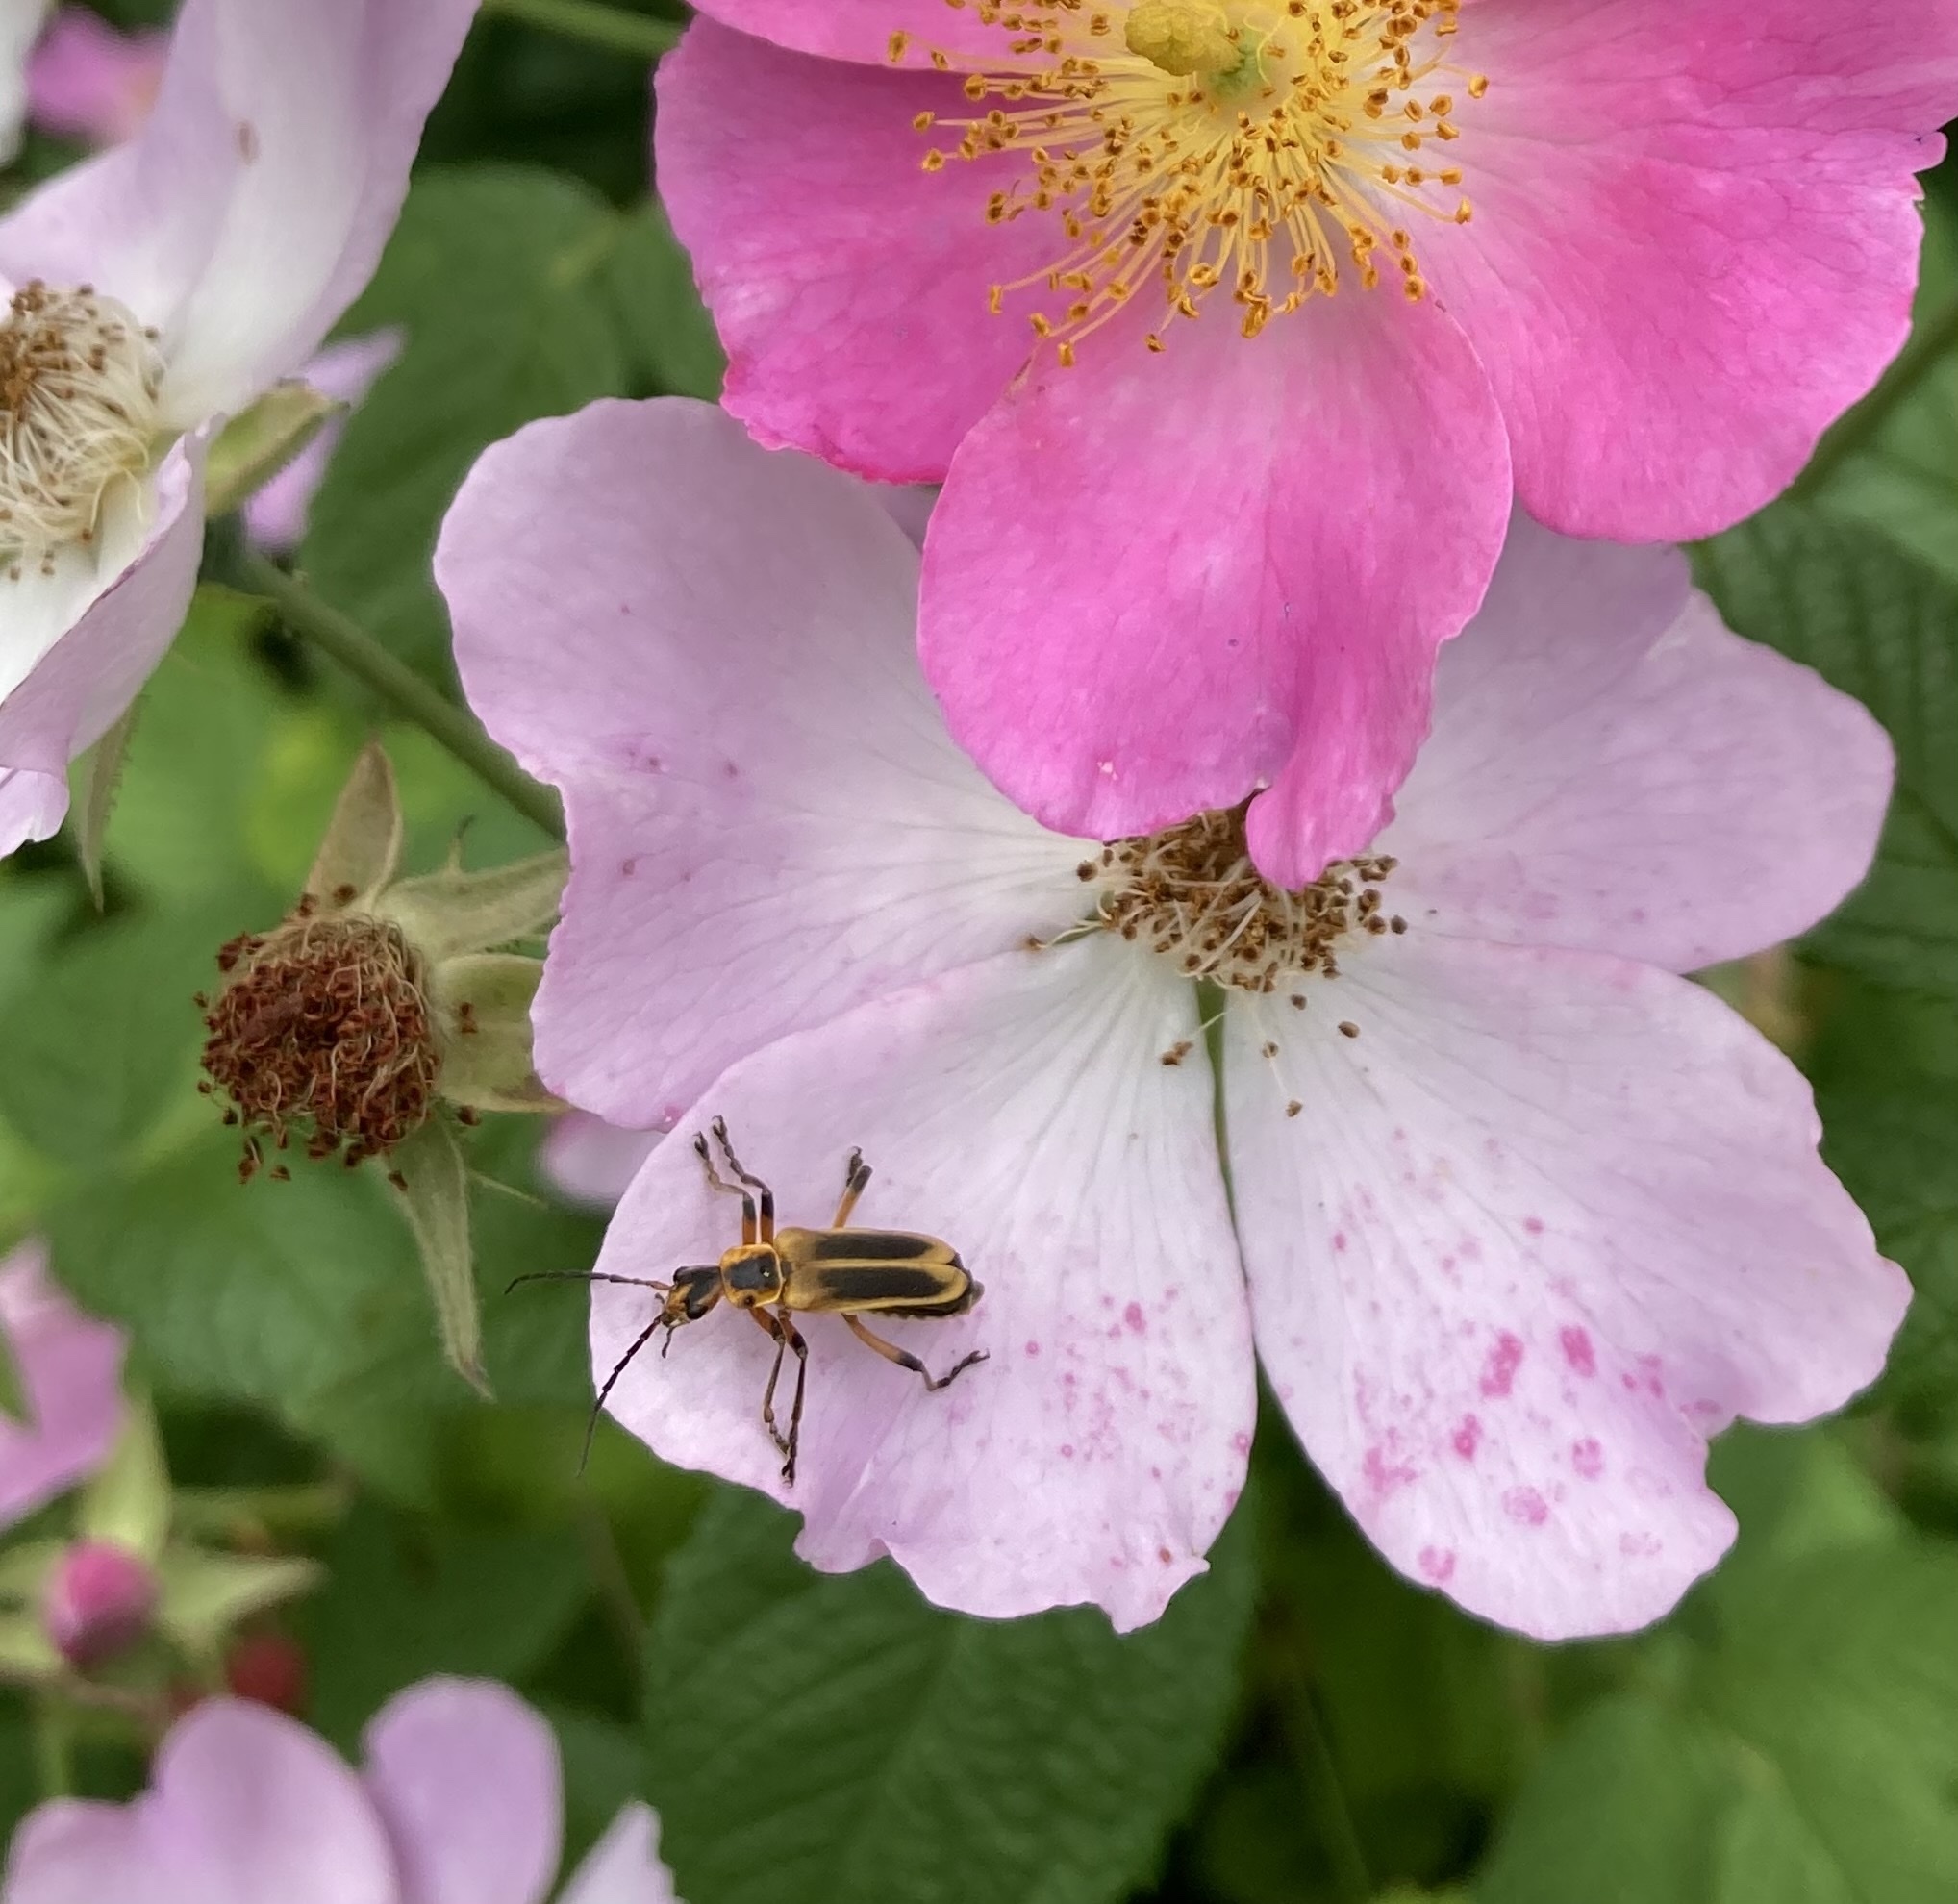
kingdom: Animalia
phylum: Arthropoda
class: Insecta
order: Coleoptera
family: Cantharidae
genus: Chauliognathus
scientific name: Chauliognathus marginatus
